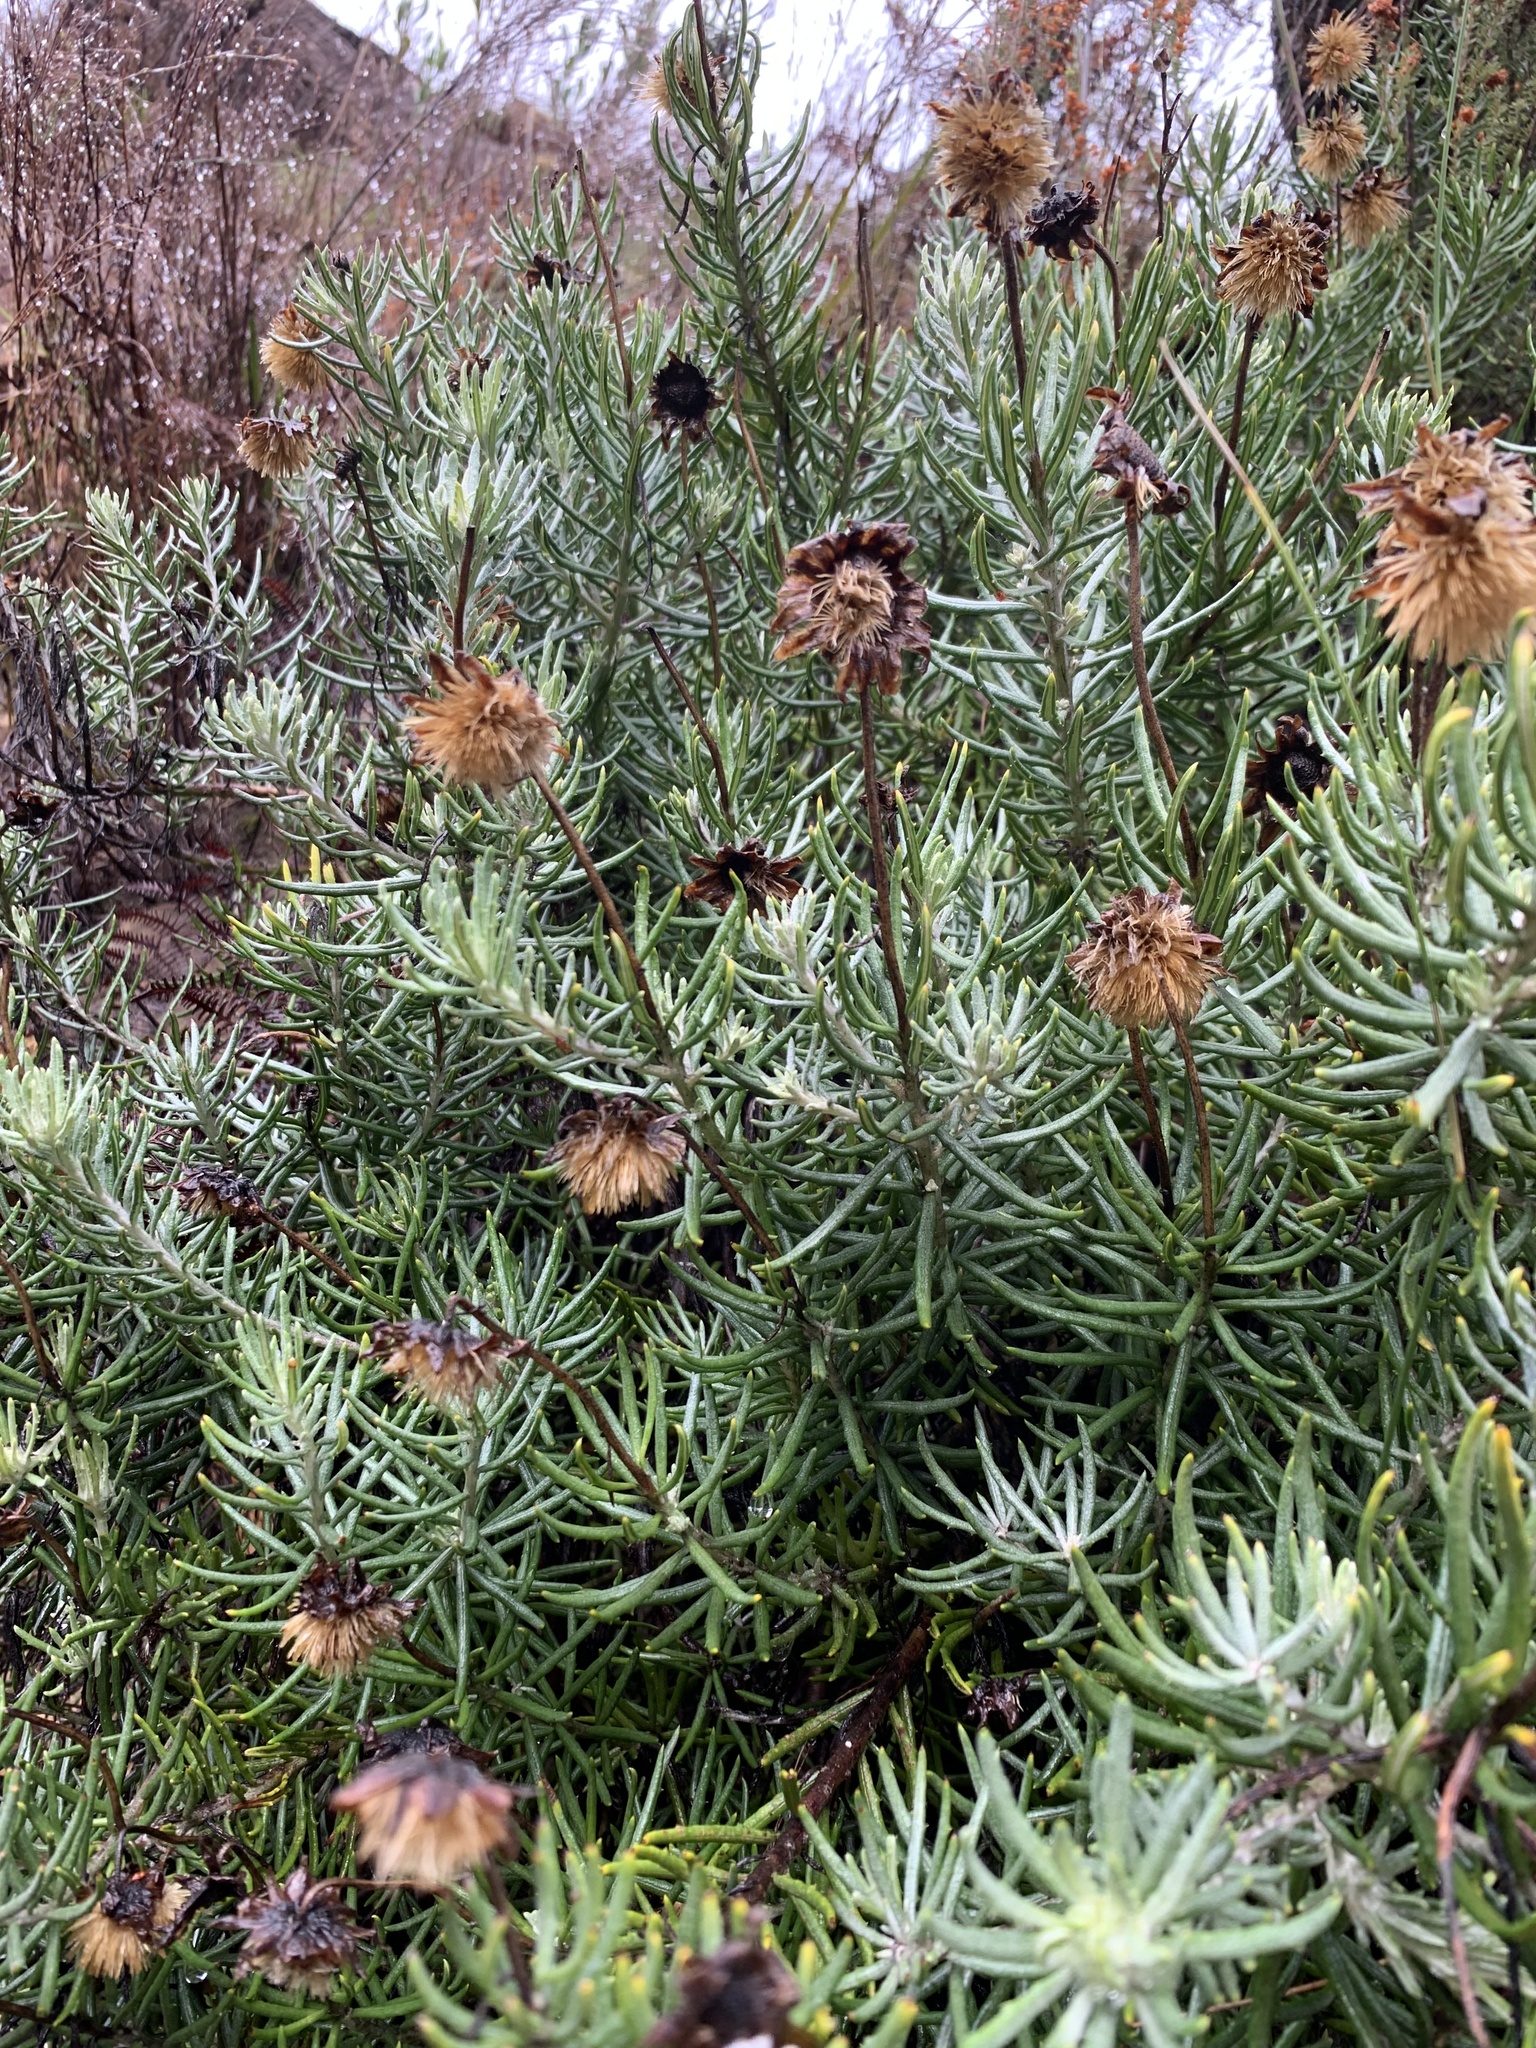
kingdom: Plantae
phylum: Tracheophyta
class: Magnoliopsida
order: Asterales
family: Asteraceae
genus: Heterolepis
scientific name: Heterolepis aliena
